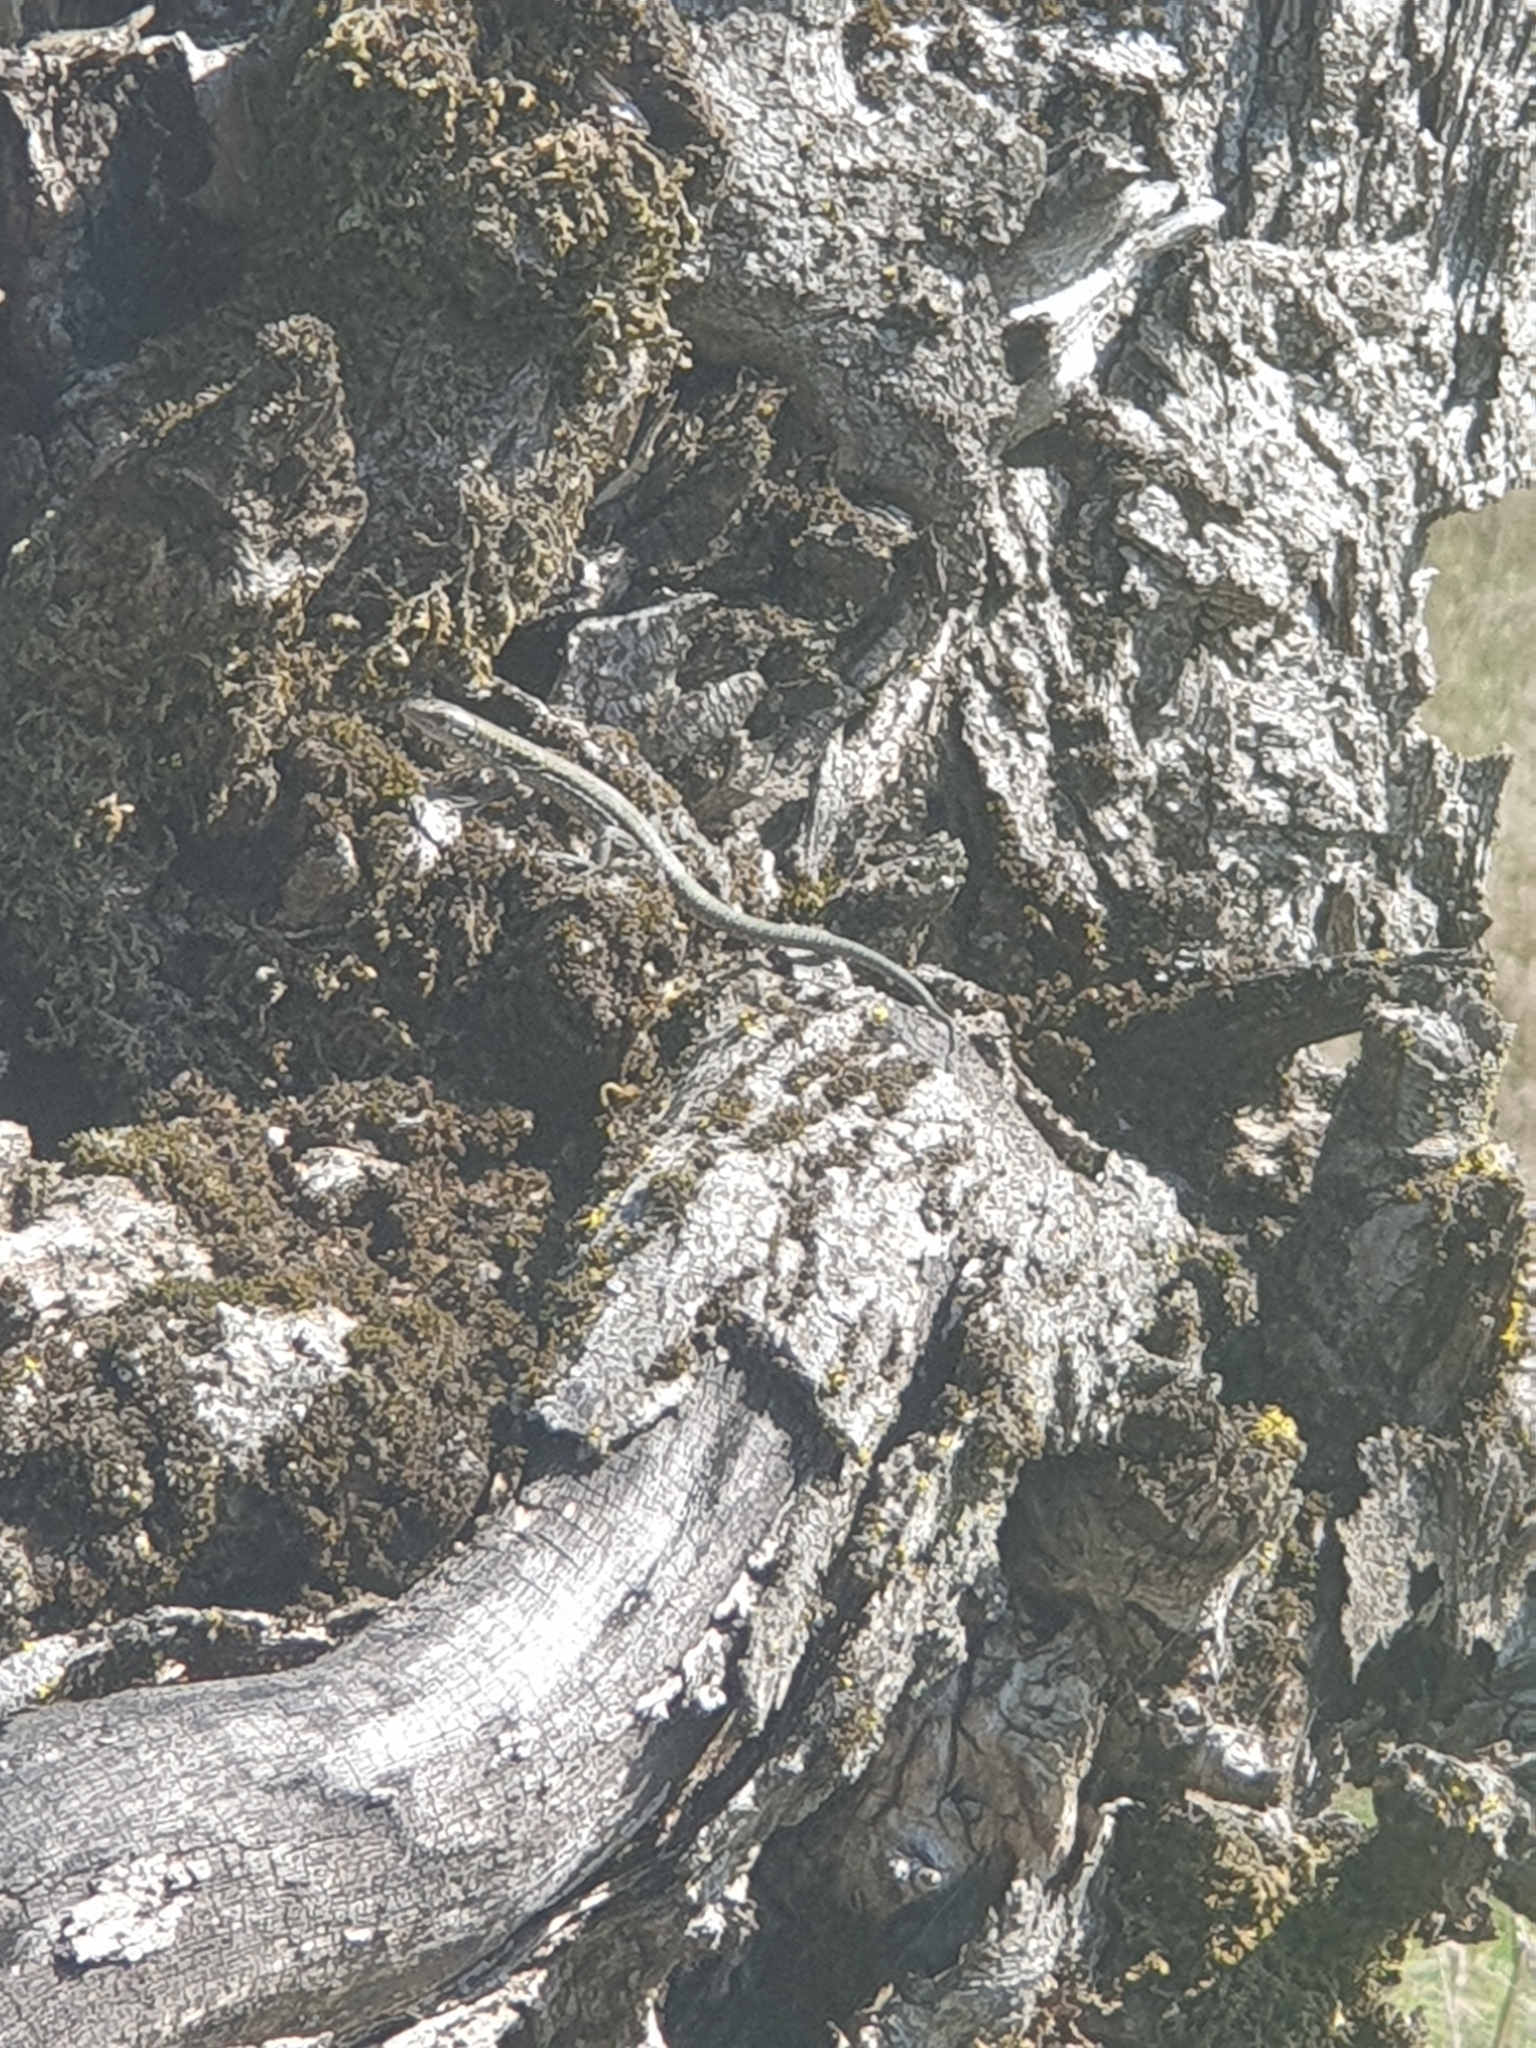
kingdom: Animalia
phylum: Chordata
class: Squamata
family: Lacertidae
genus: Podarcis
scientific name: Podarcis muralis
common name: Common wall lizard
